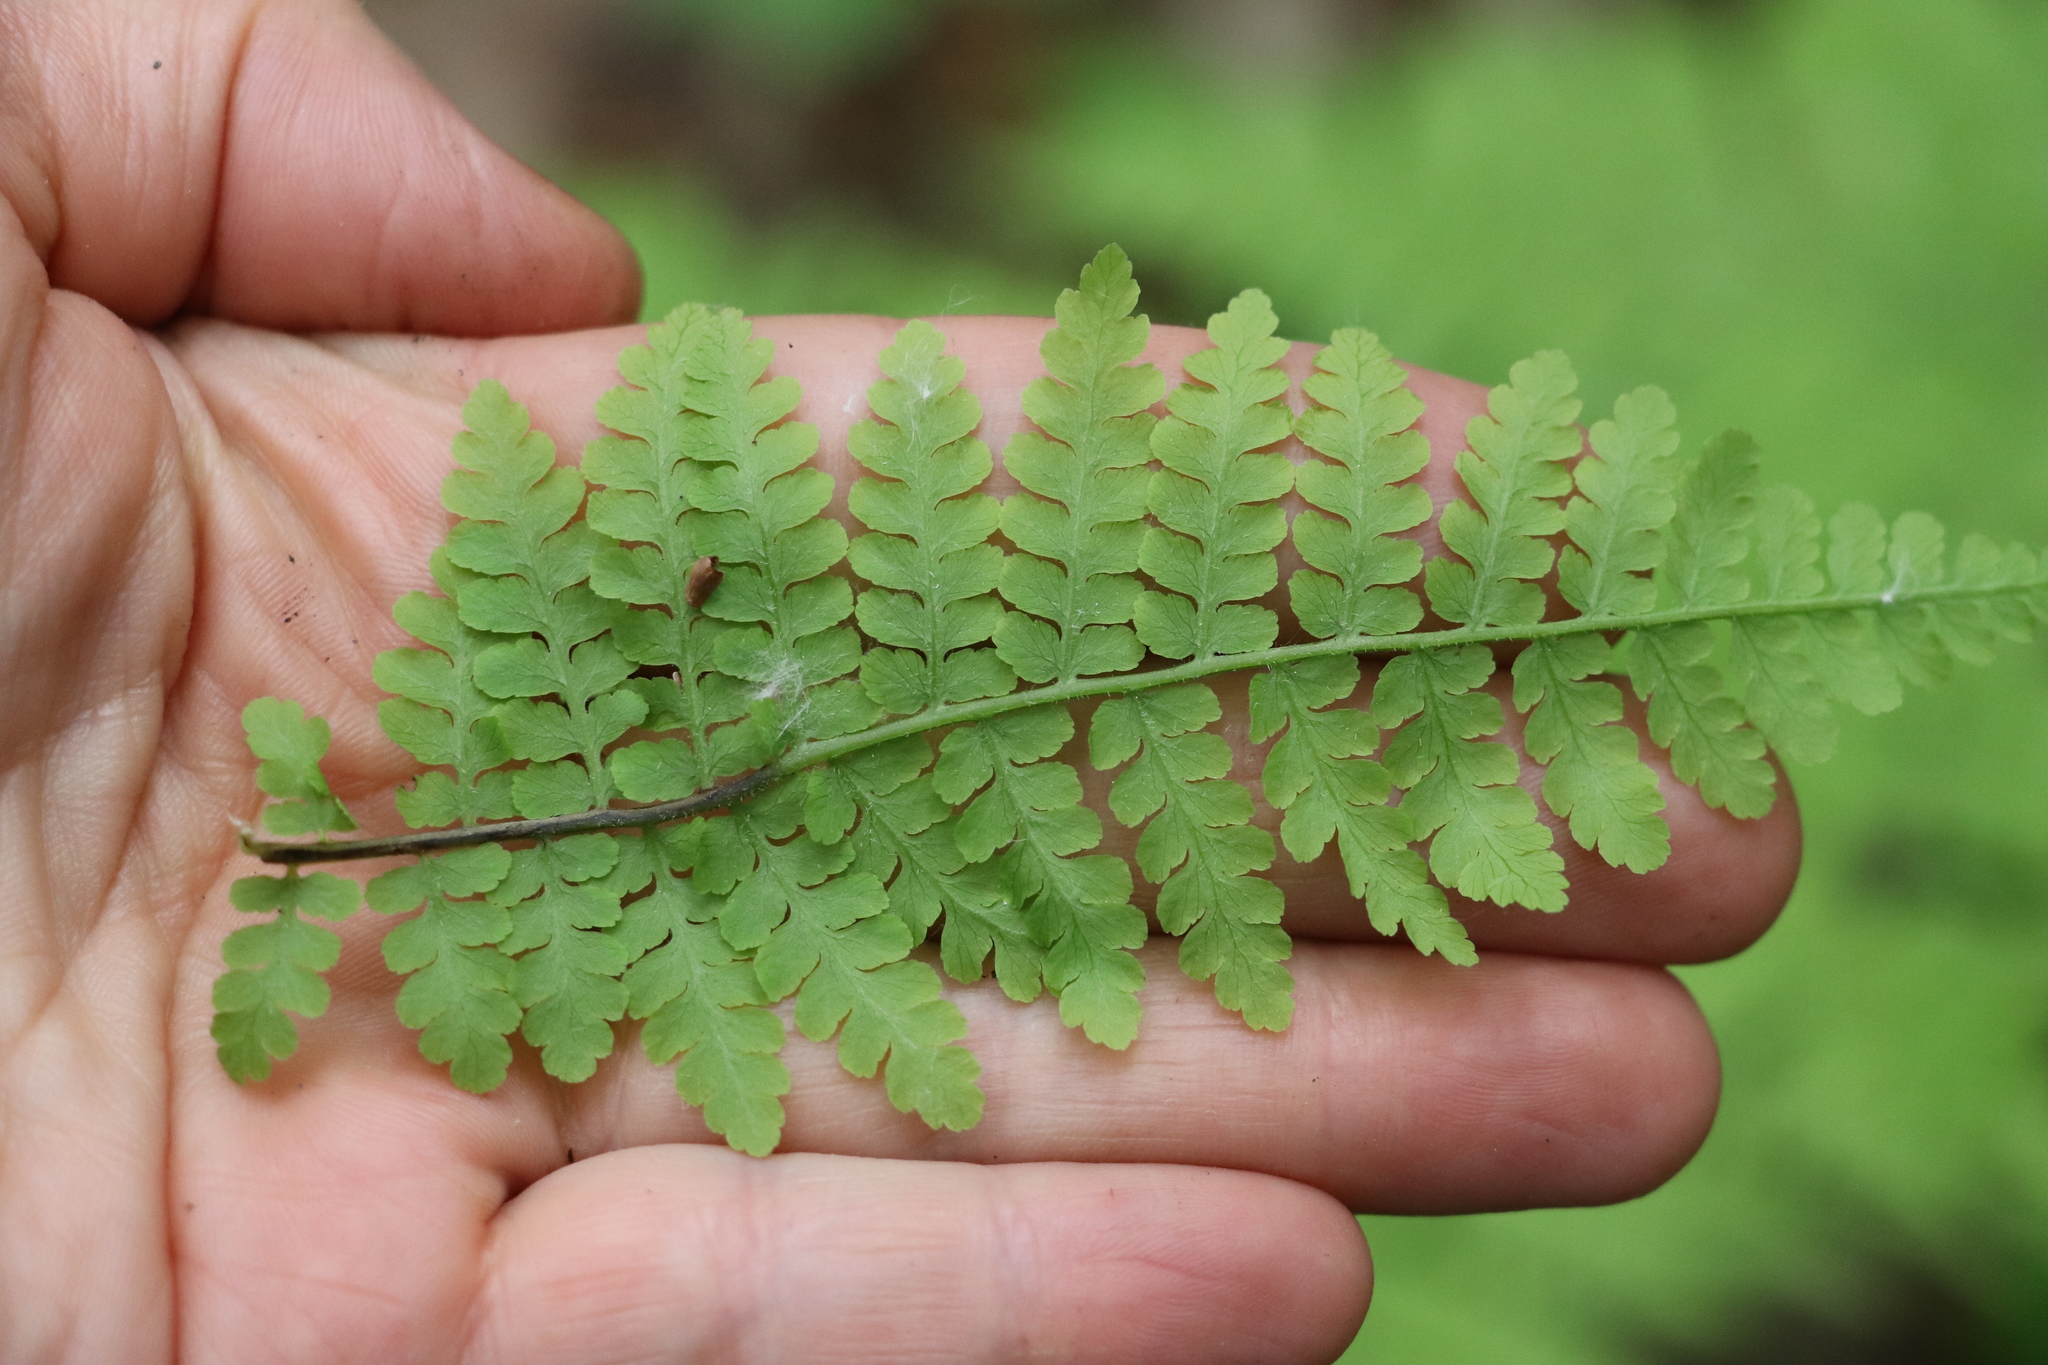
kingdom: Plantae
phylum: Tracheophyta
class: Polypodiopsida
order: Polypodiales
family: Athyriaceae
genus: Diplazium
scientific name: Diplazium sibiricum
